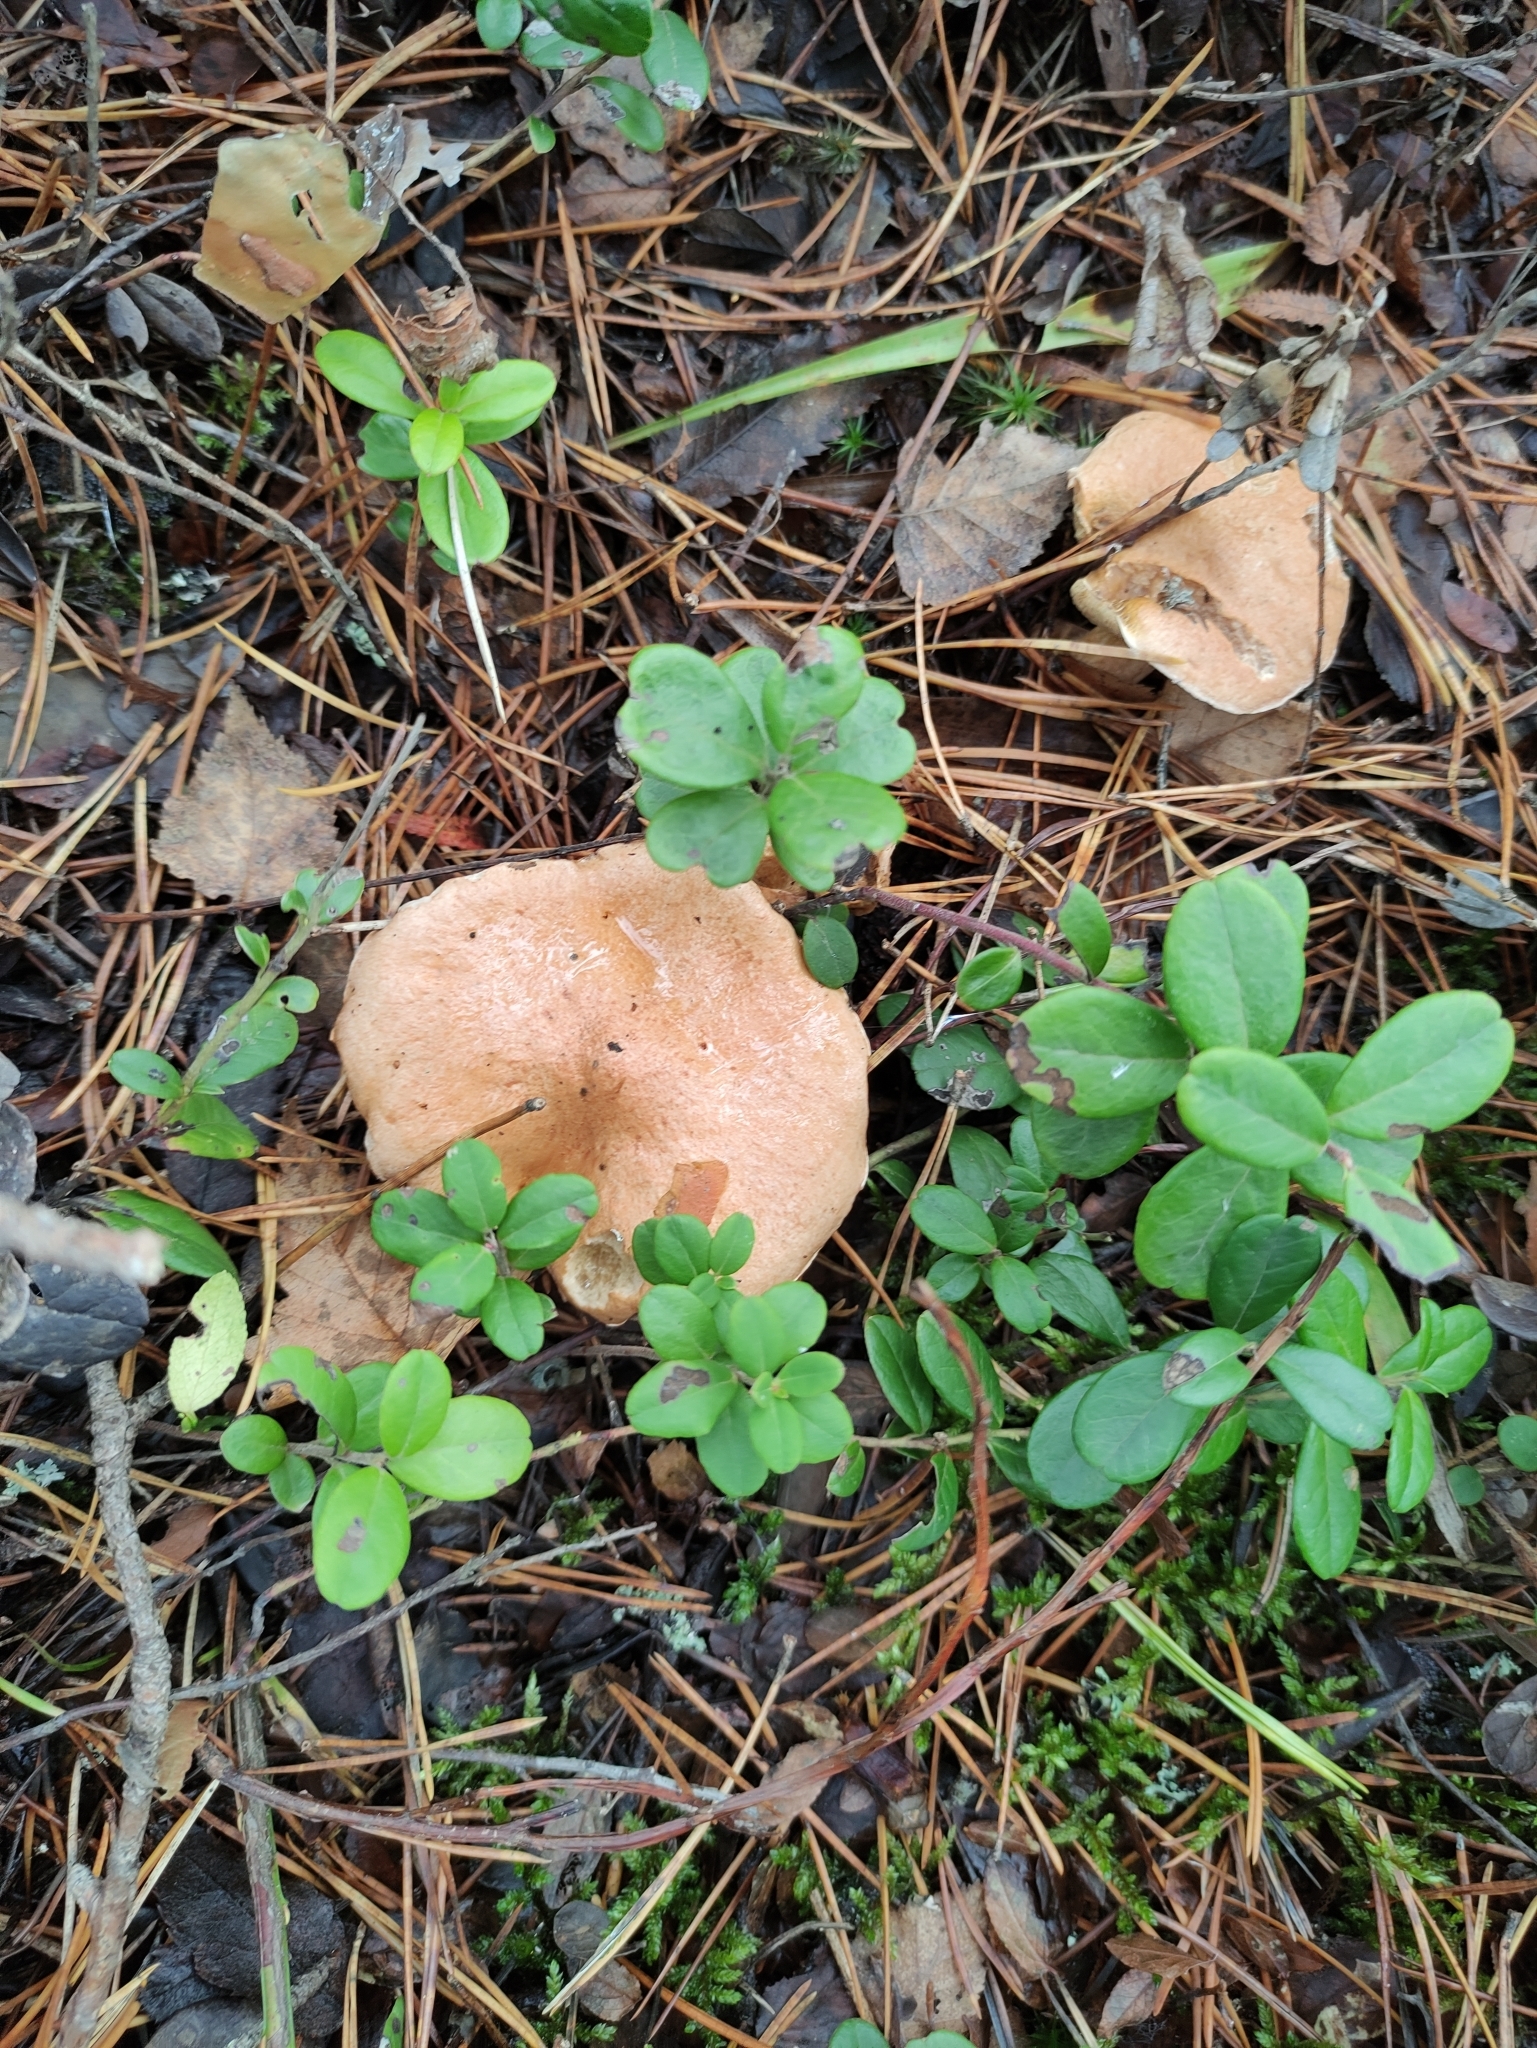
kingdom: Fungi
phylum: Basidiomycota
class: Agaricomycetes
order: Boletales
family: Suillaceae
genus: Suillus
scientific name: Suillus bovinus
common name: Bovine bolete
